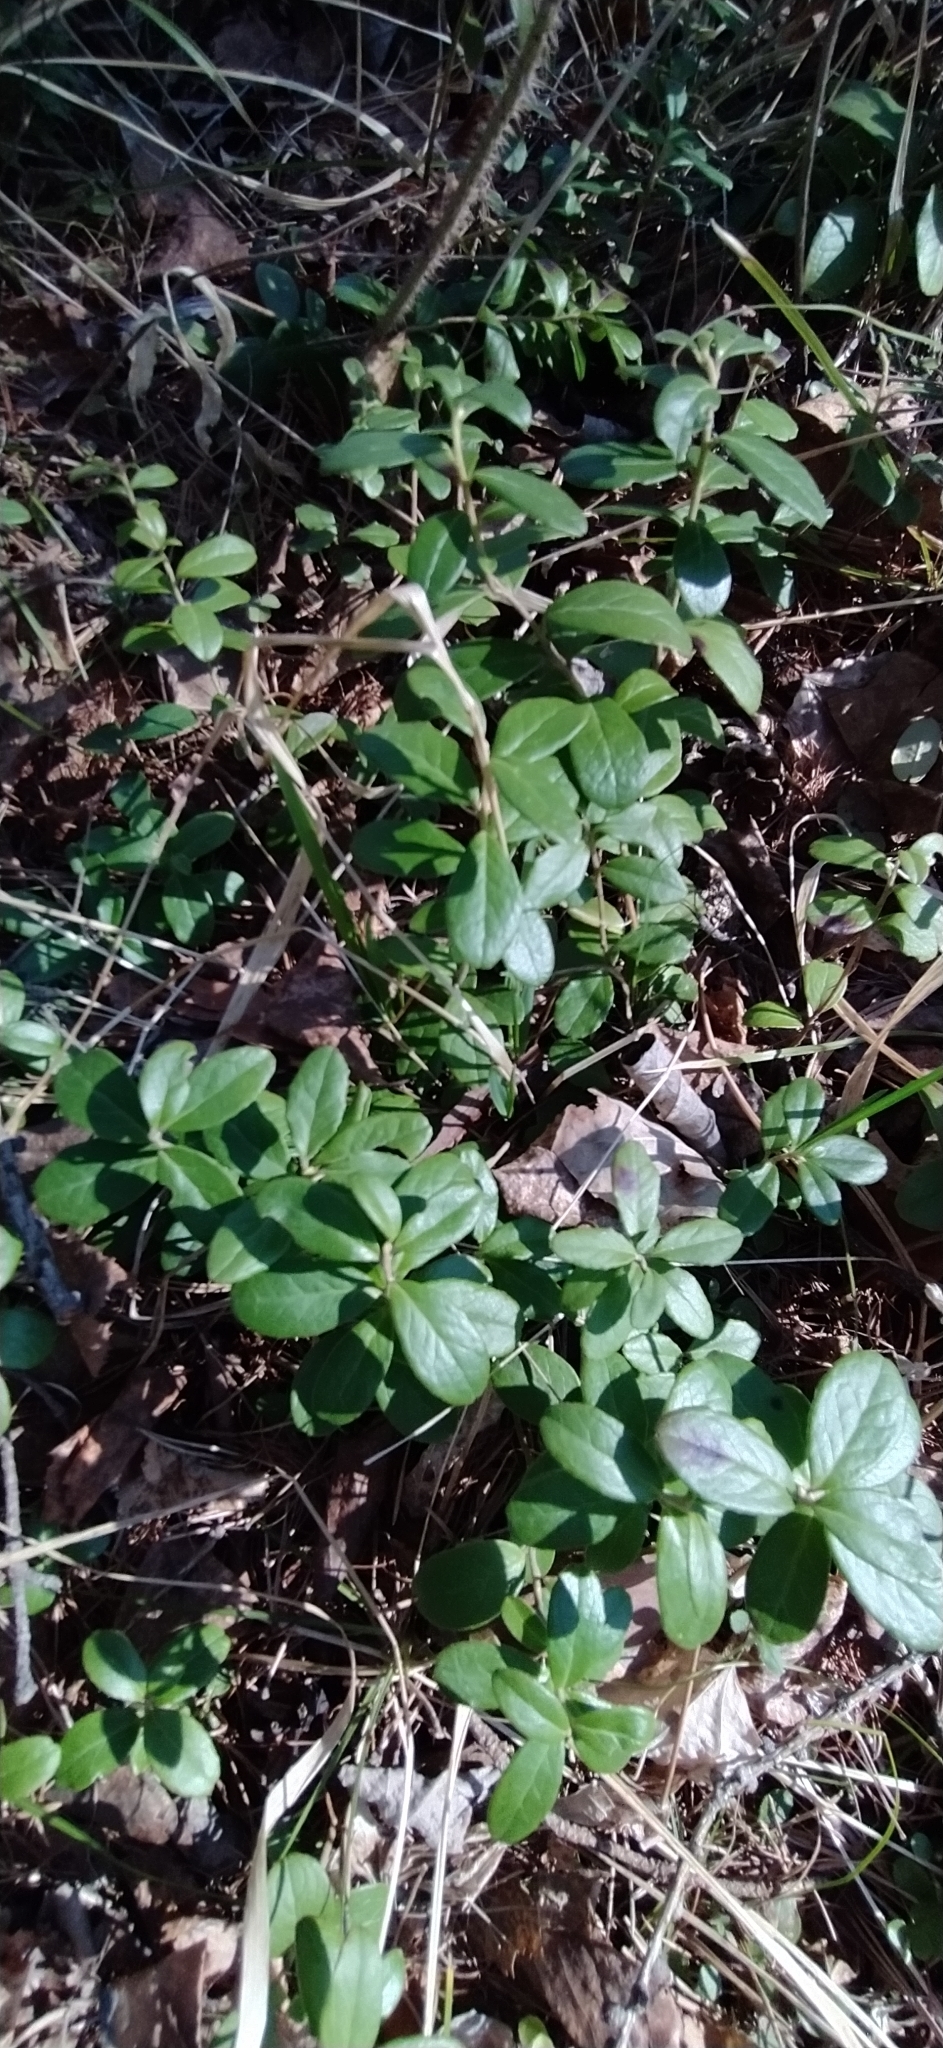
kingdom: Plantae
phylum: Tracheophyta
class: Magnoliopsida
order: Ericales
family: Ericaceae
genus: Vaccinium
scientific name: Vaccinium vitis-idaea
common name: Cowberry
